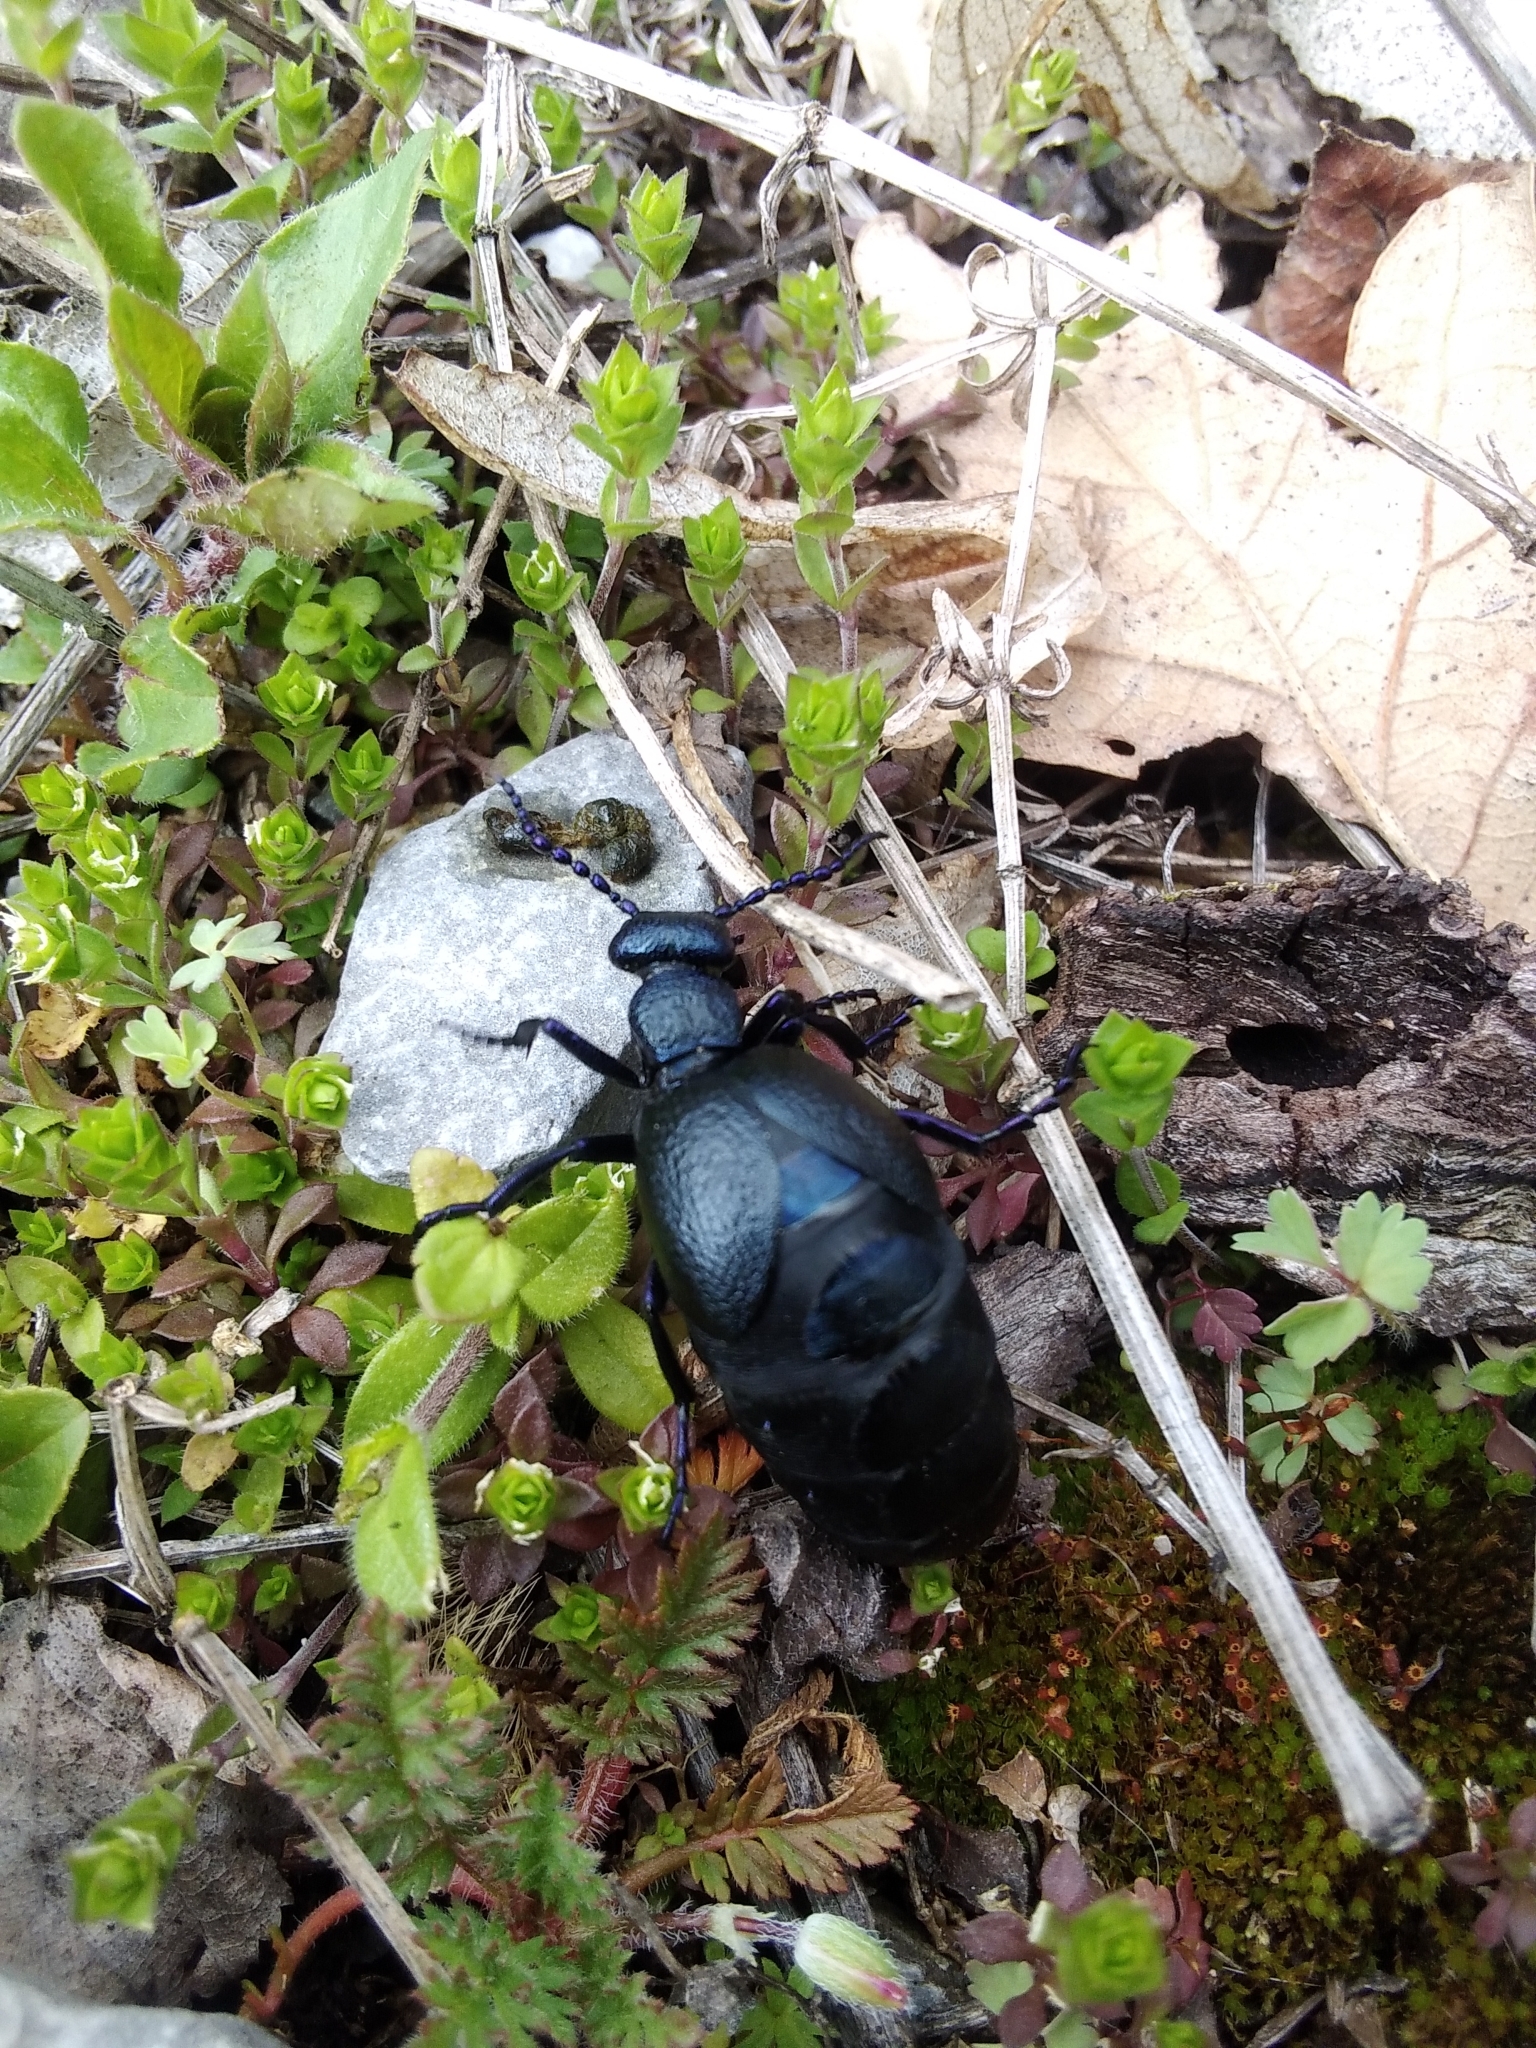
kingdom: Animalia
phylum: Arthropoda
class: Insecta
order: Coleoptera
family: Meloidae
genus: Meloe
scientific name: Meloe proscarabaeus
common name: Black oil-beetle
